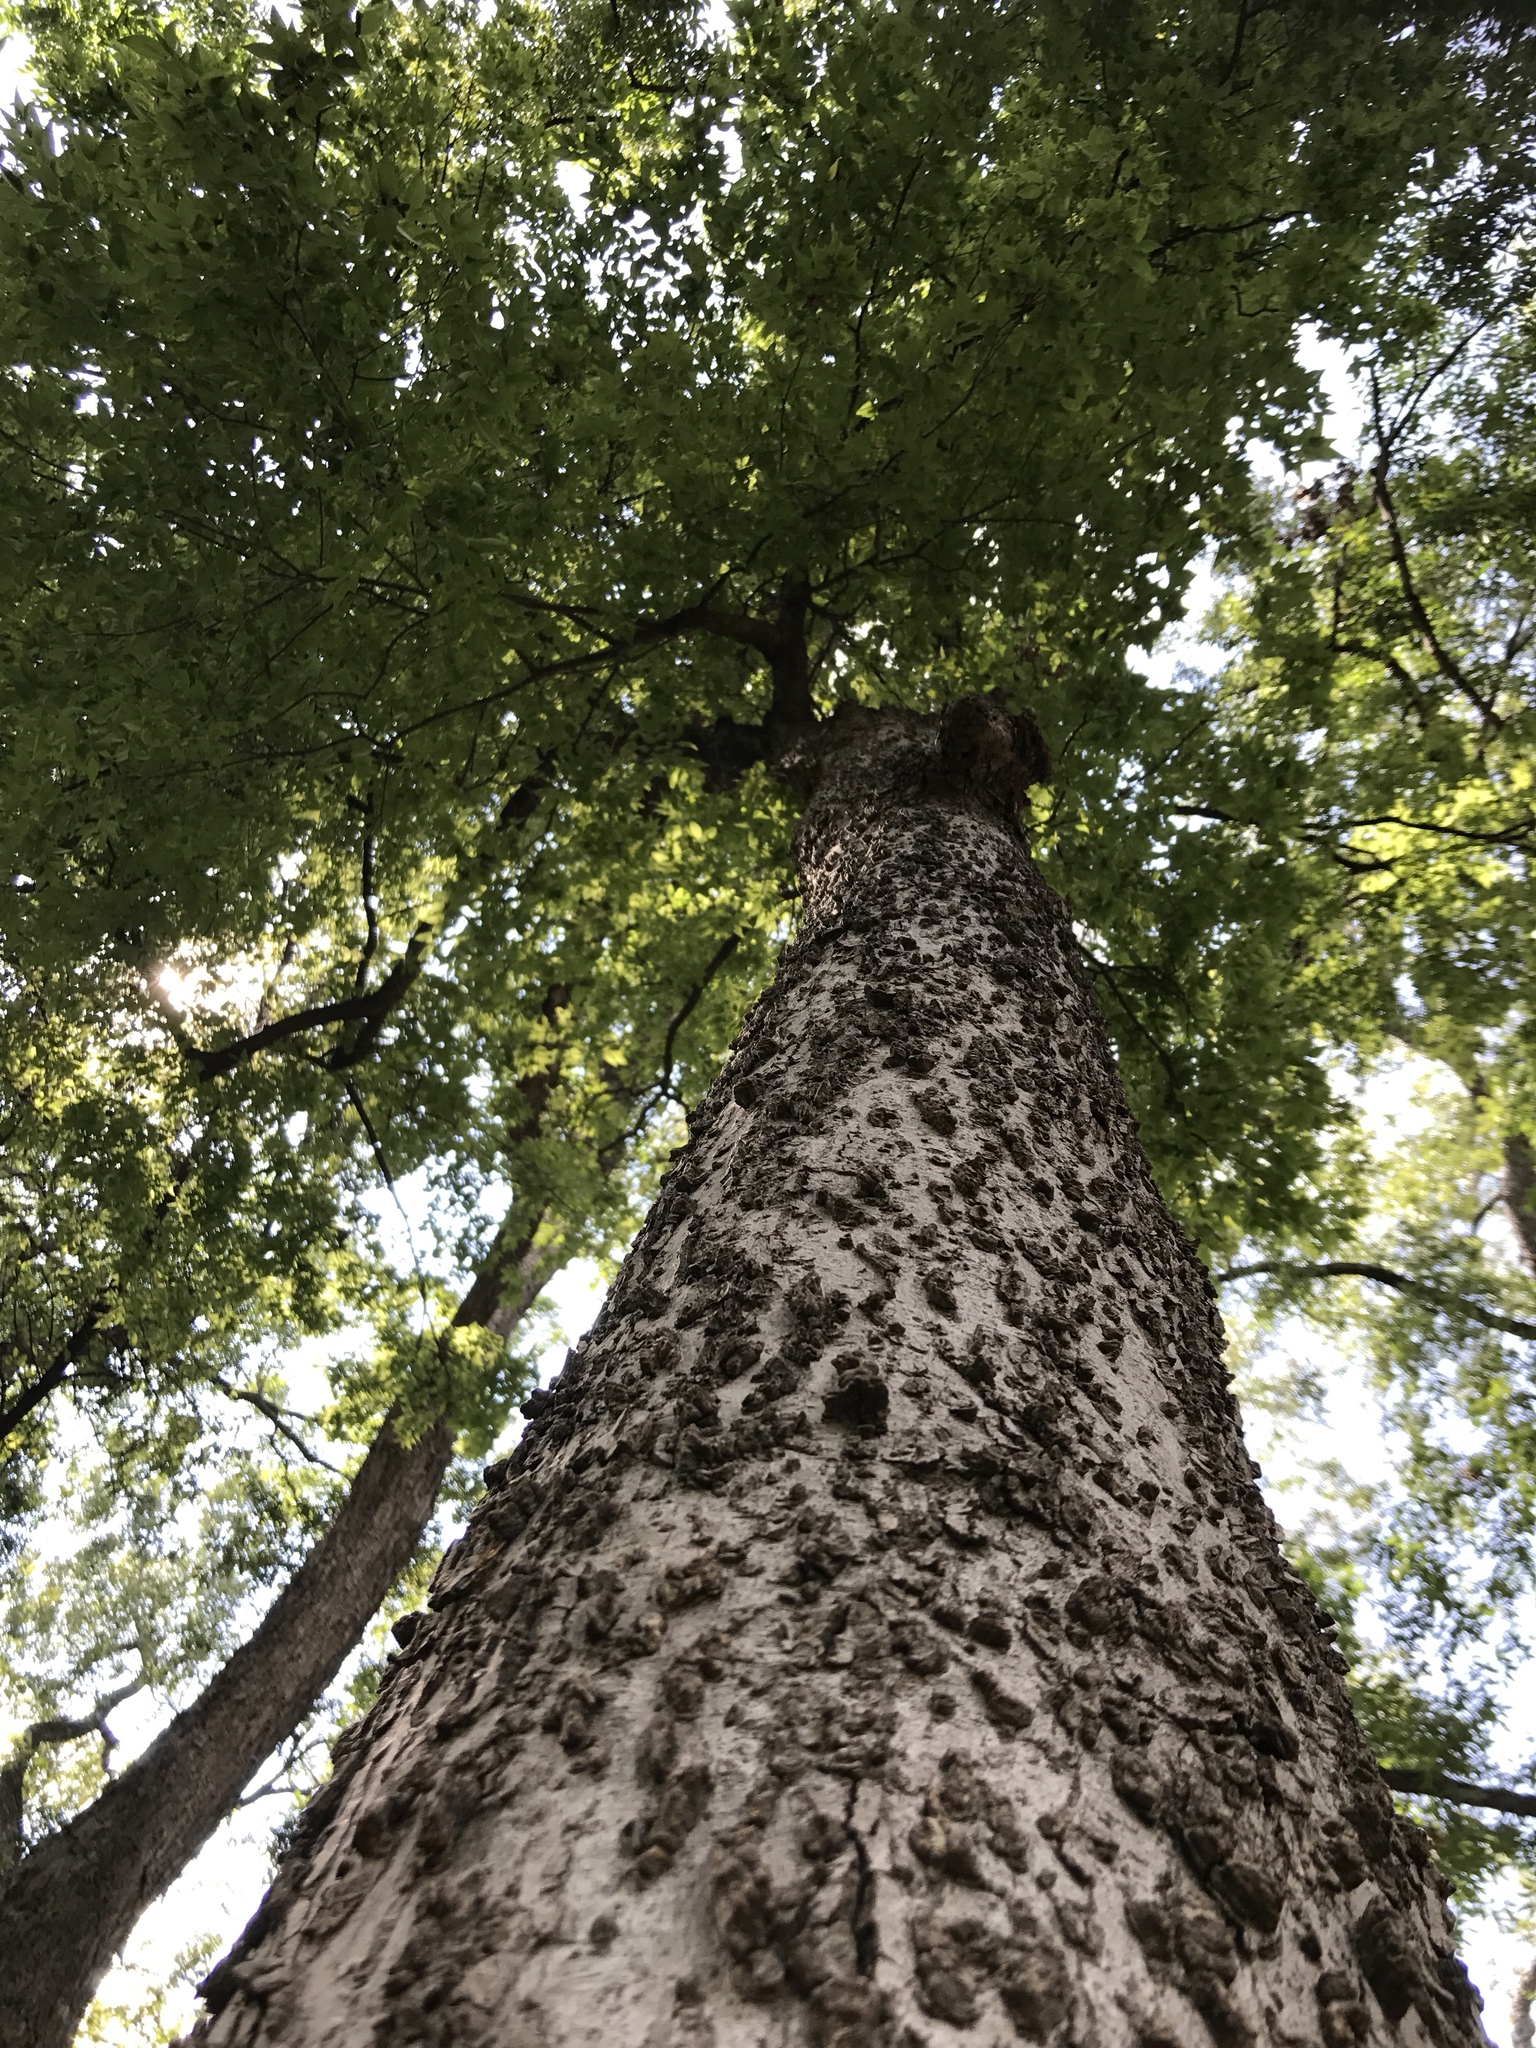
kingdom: Plantae
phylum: Tracheophyta
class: Magnoliopsida
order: Rosales
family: Cannabaceae
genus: Celtis
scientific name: Celtis laevigata
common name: Sugarberry
